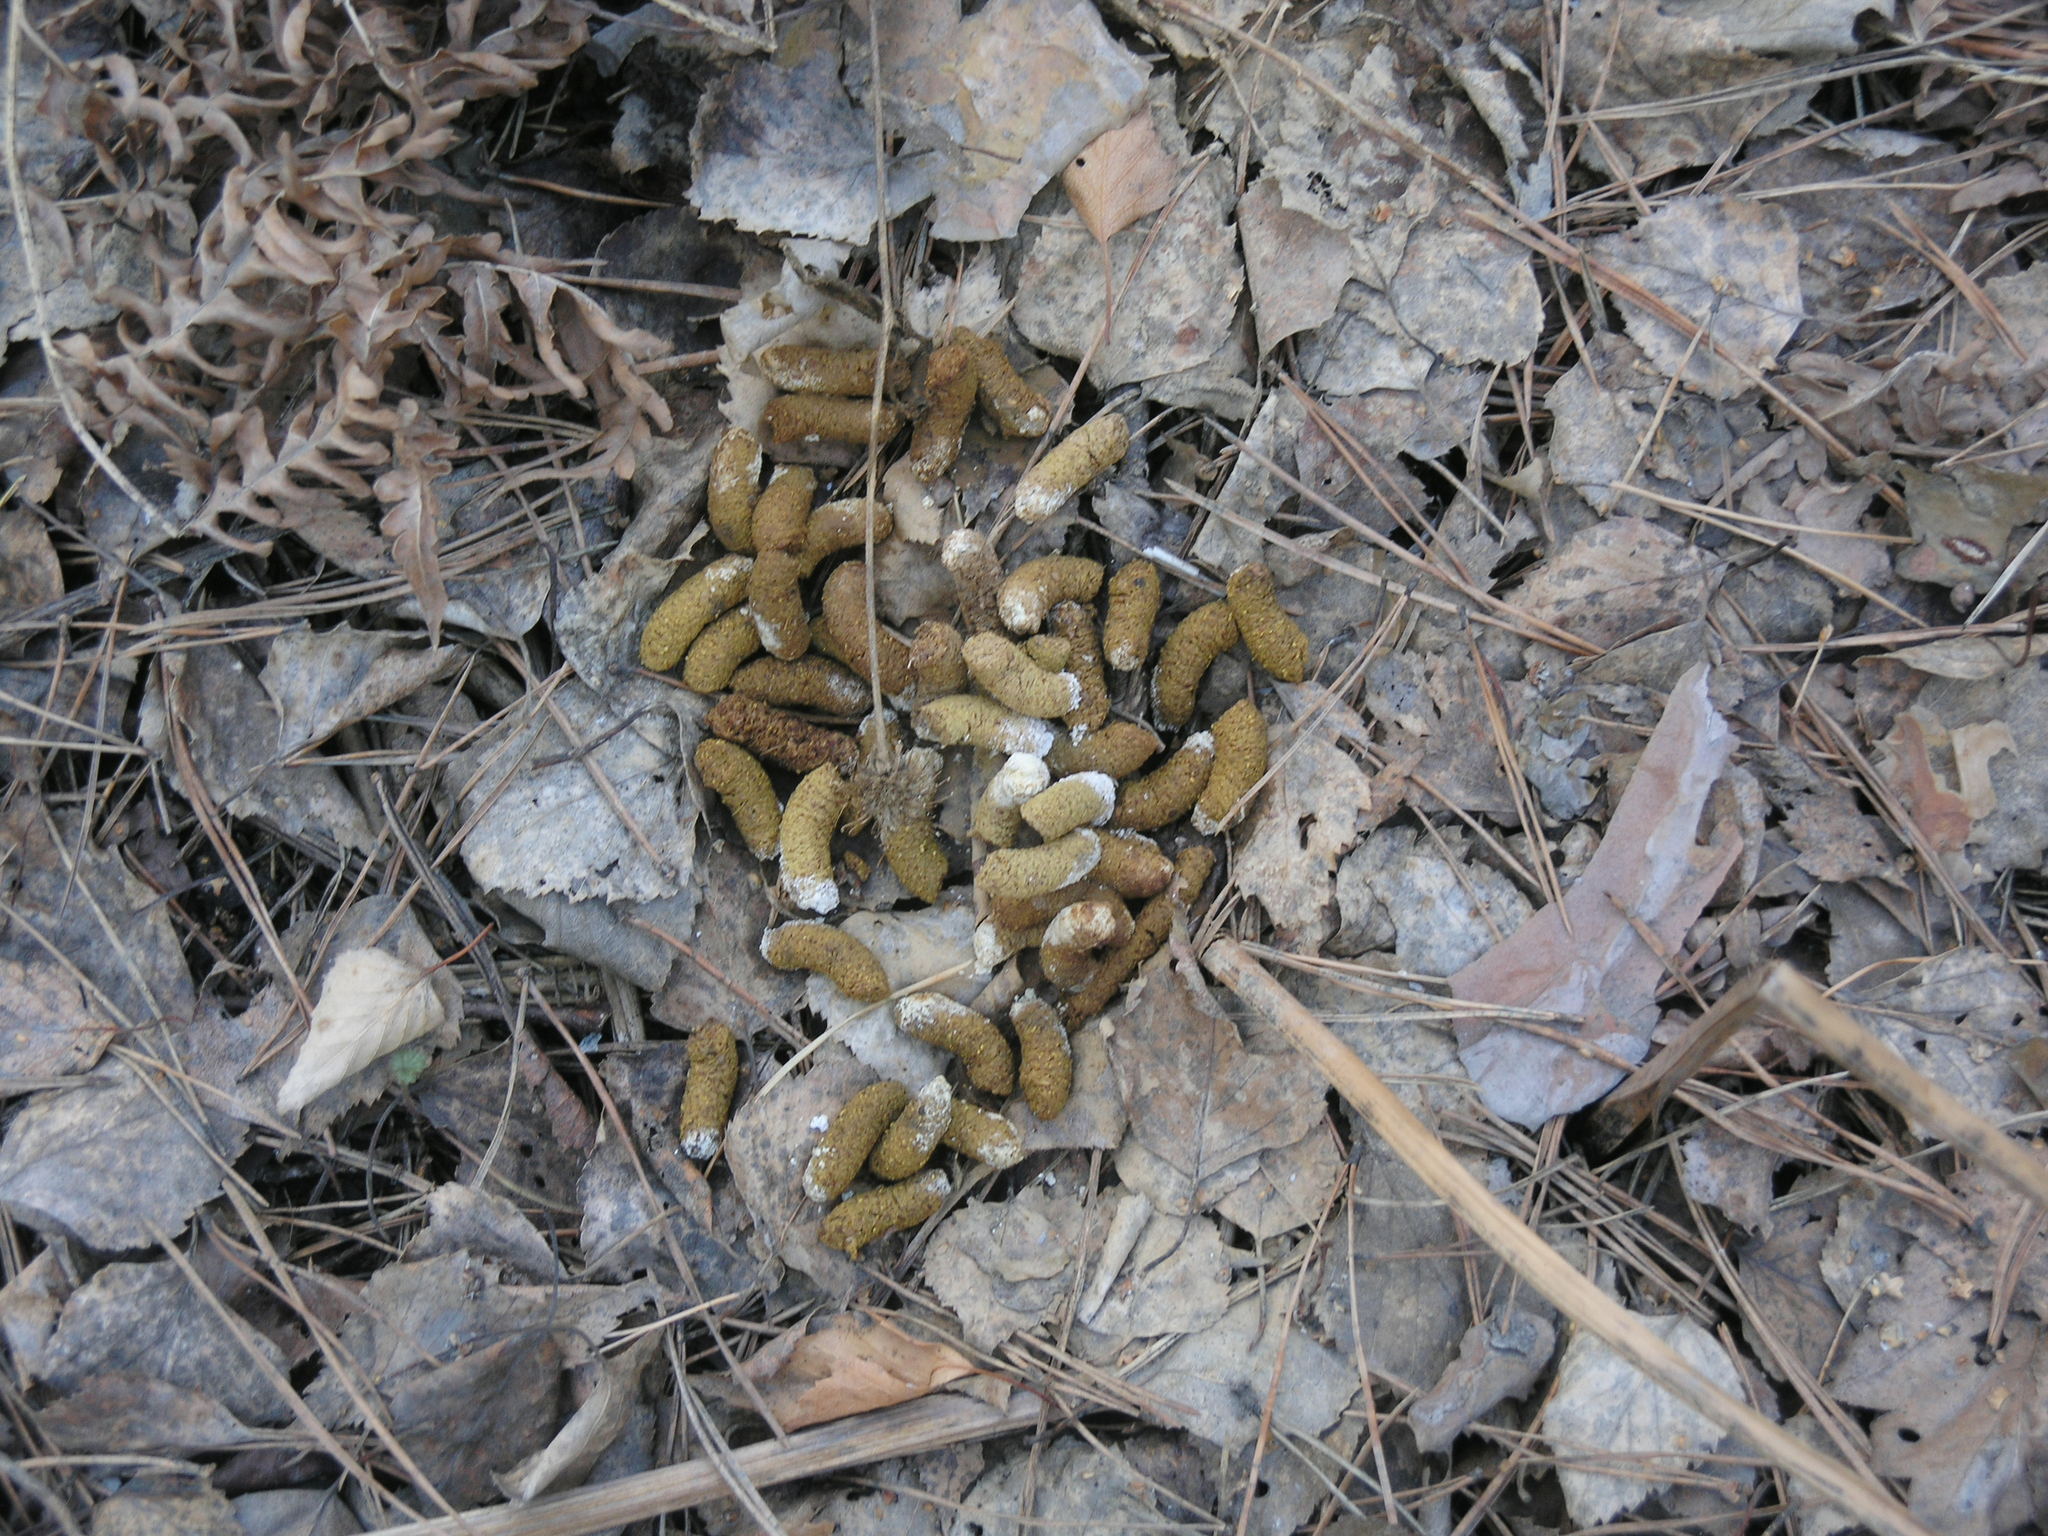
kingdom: Animalia
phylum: Chordata
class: Aves
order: Galliformes
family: Phasianidae
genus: Tetrastes
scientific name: Tetrastes bonasia
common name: Hazel grouse
